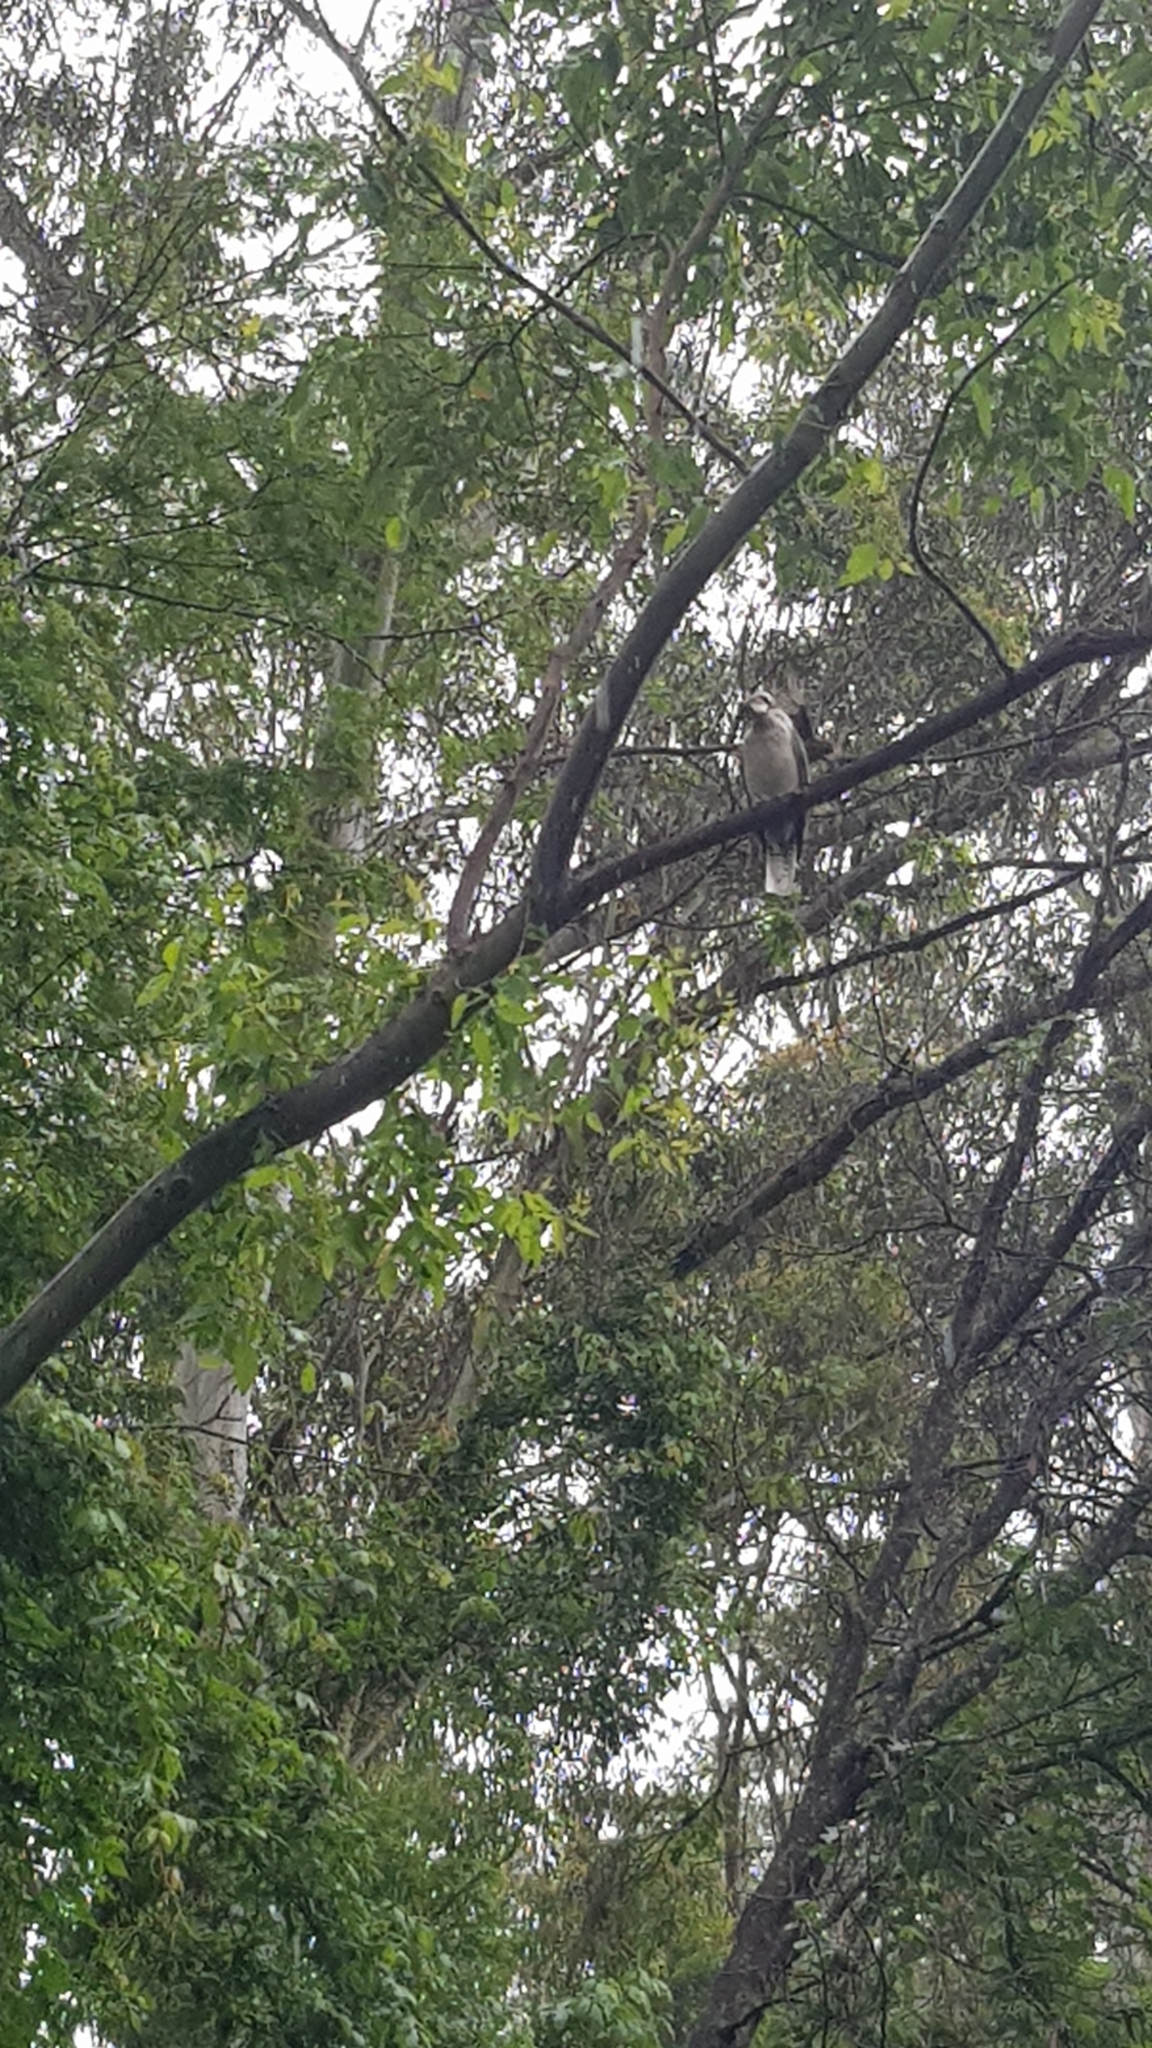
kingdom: Animalia
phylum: Chordata
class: Aves
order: Coraciiformes
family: Alcedinidae
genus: Dacelo
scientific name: Dacelo novaeguineae
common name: Laughing kookaburra
